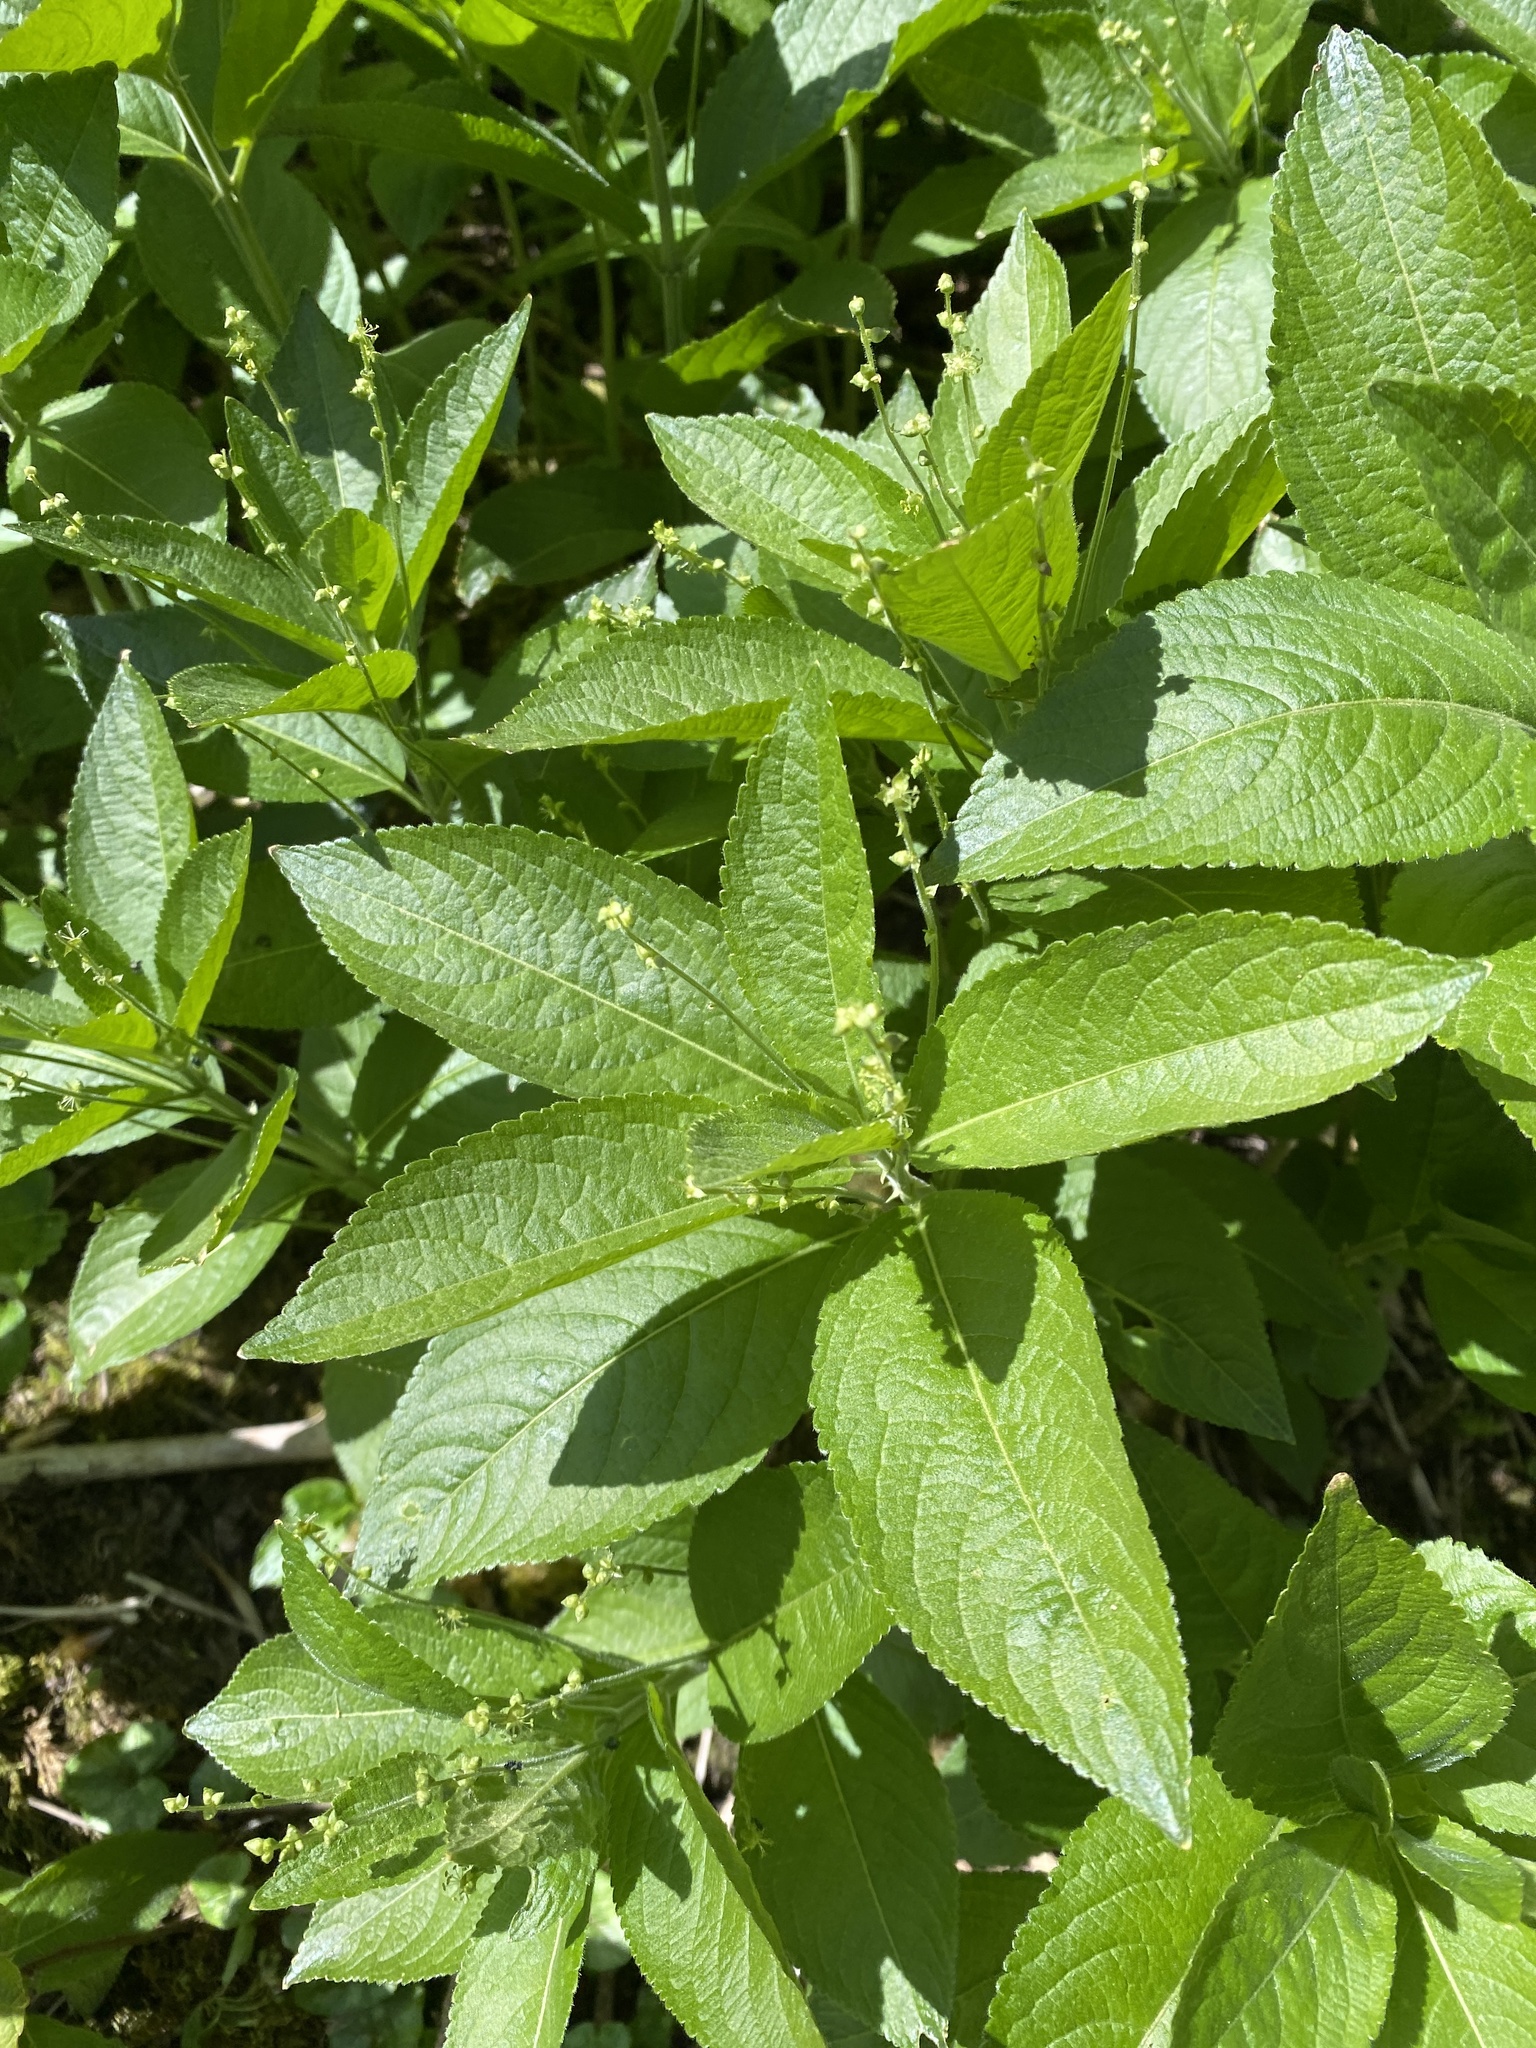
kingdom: Plantae
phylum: Tracheophyta
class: Magnoliopsida
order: Malpighiales
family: Euphorbiaceae
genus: Mercurialis
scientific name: Mercurialis perennis
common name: Dog mercury
